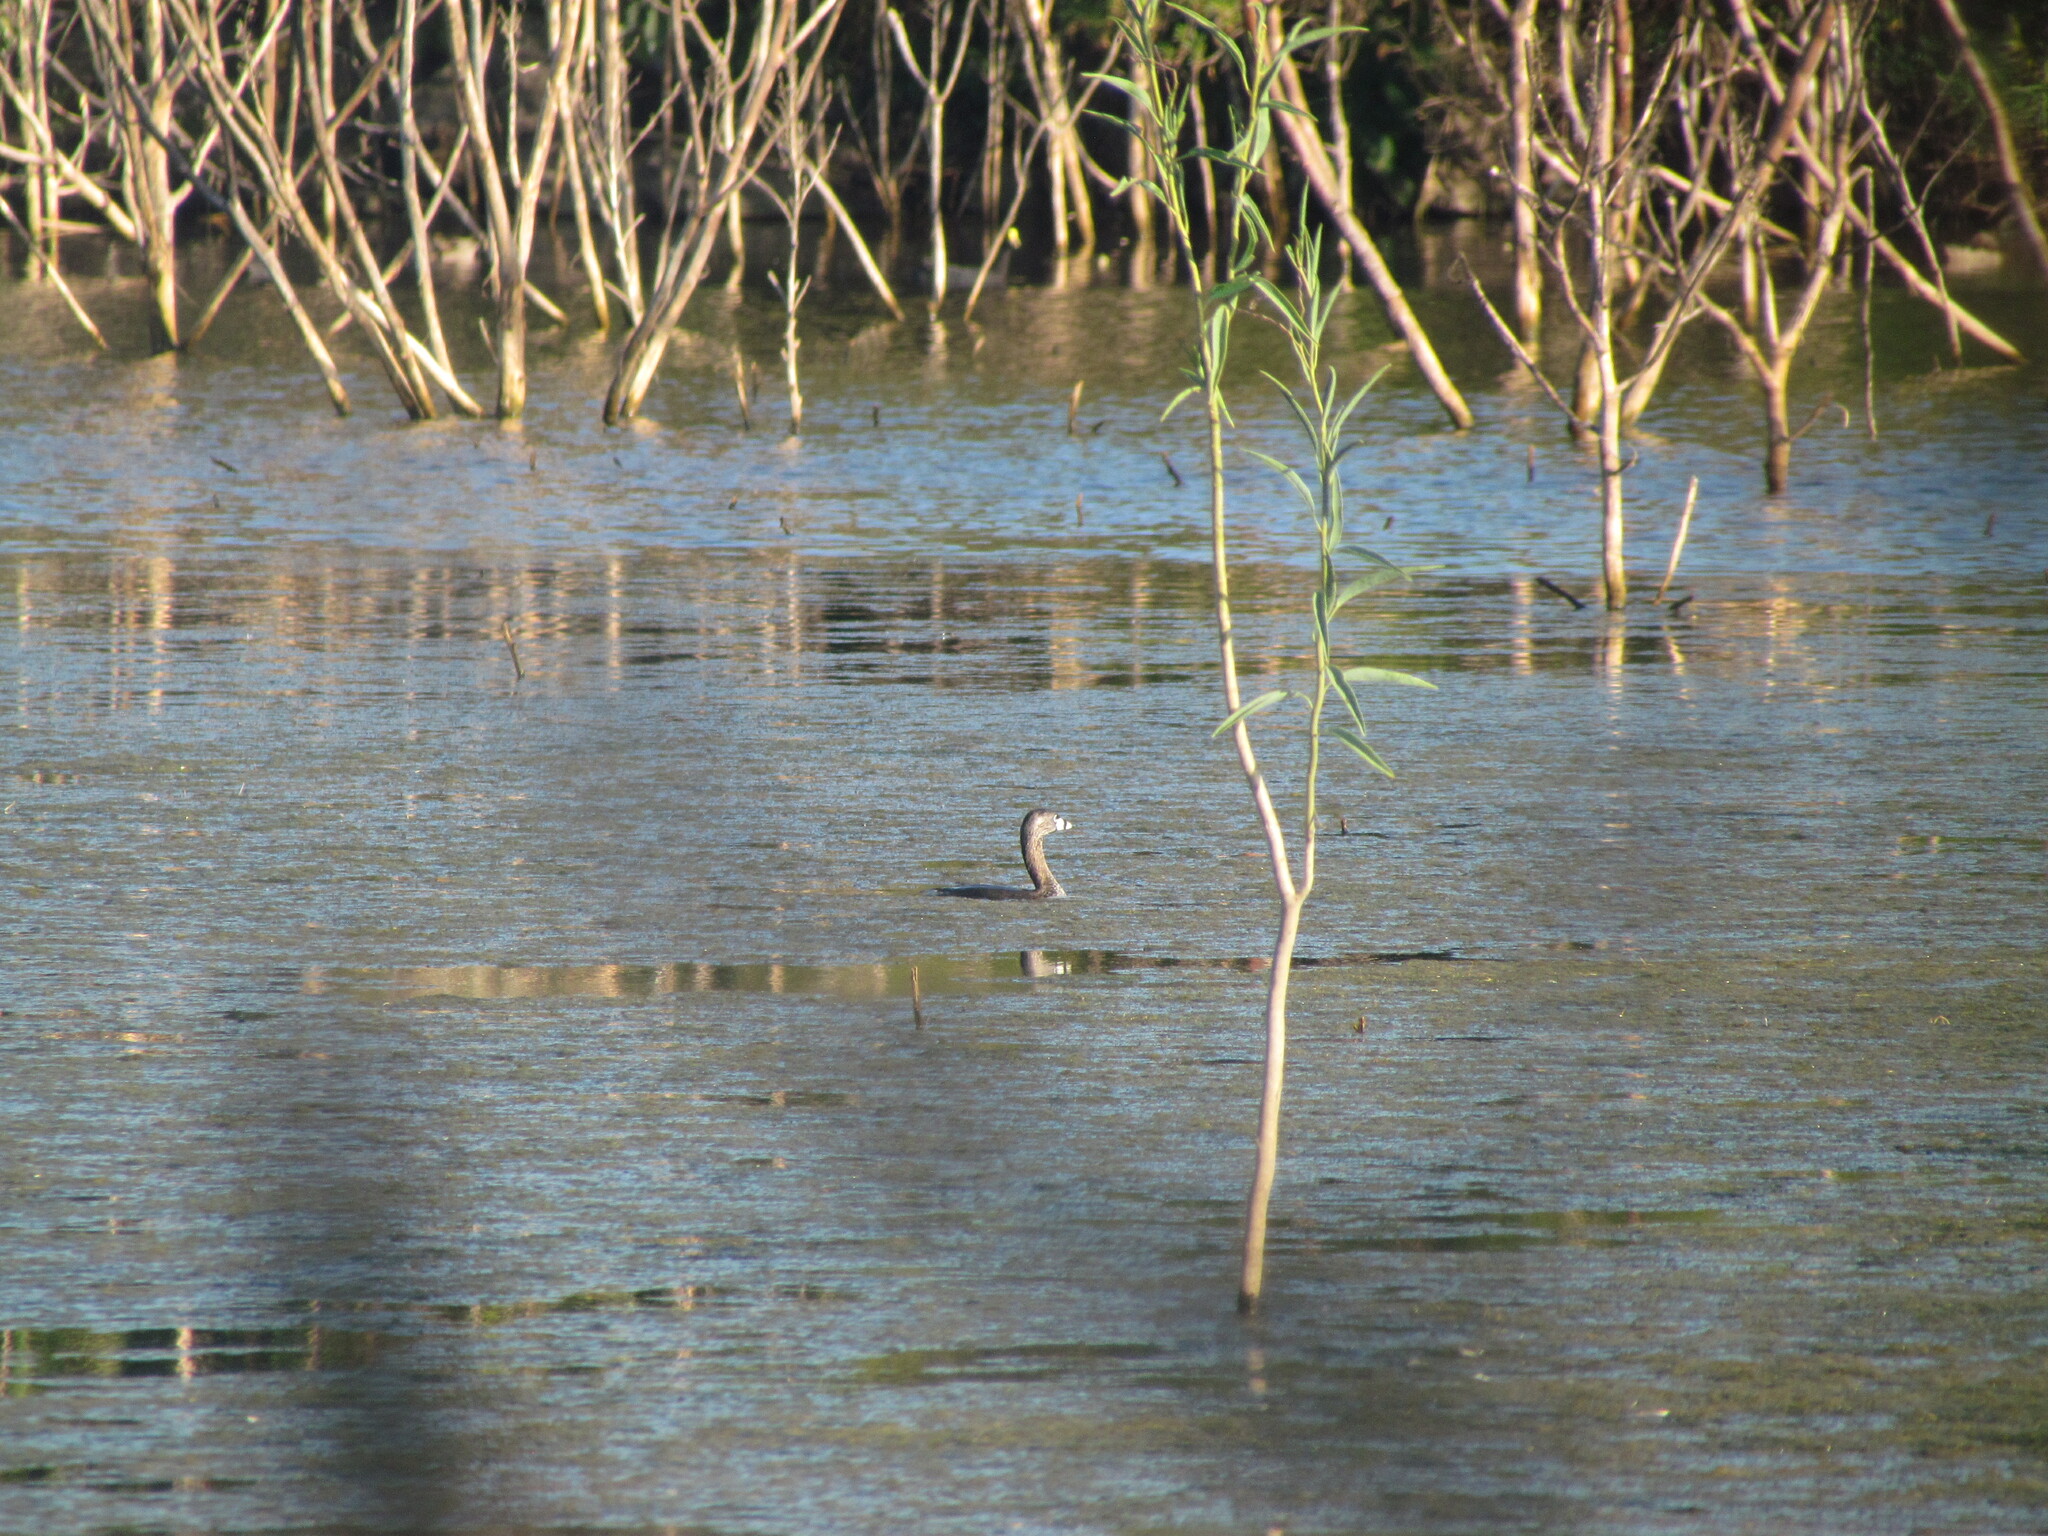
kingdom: Animalia
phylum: Chordata
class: Aves
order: Podicipediformes
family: Podicipedidae
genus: Podilymbus
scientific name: Podilymbus podiceps
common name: Pied-billed grebe
